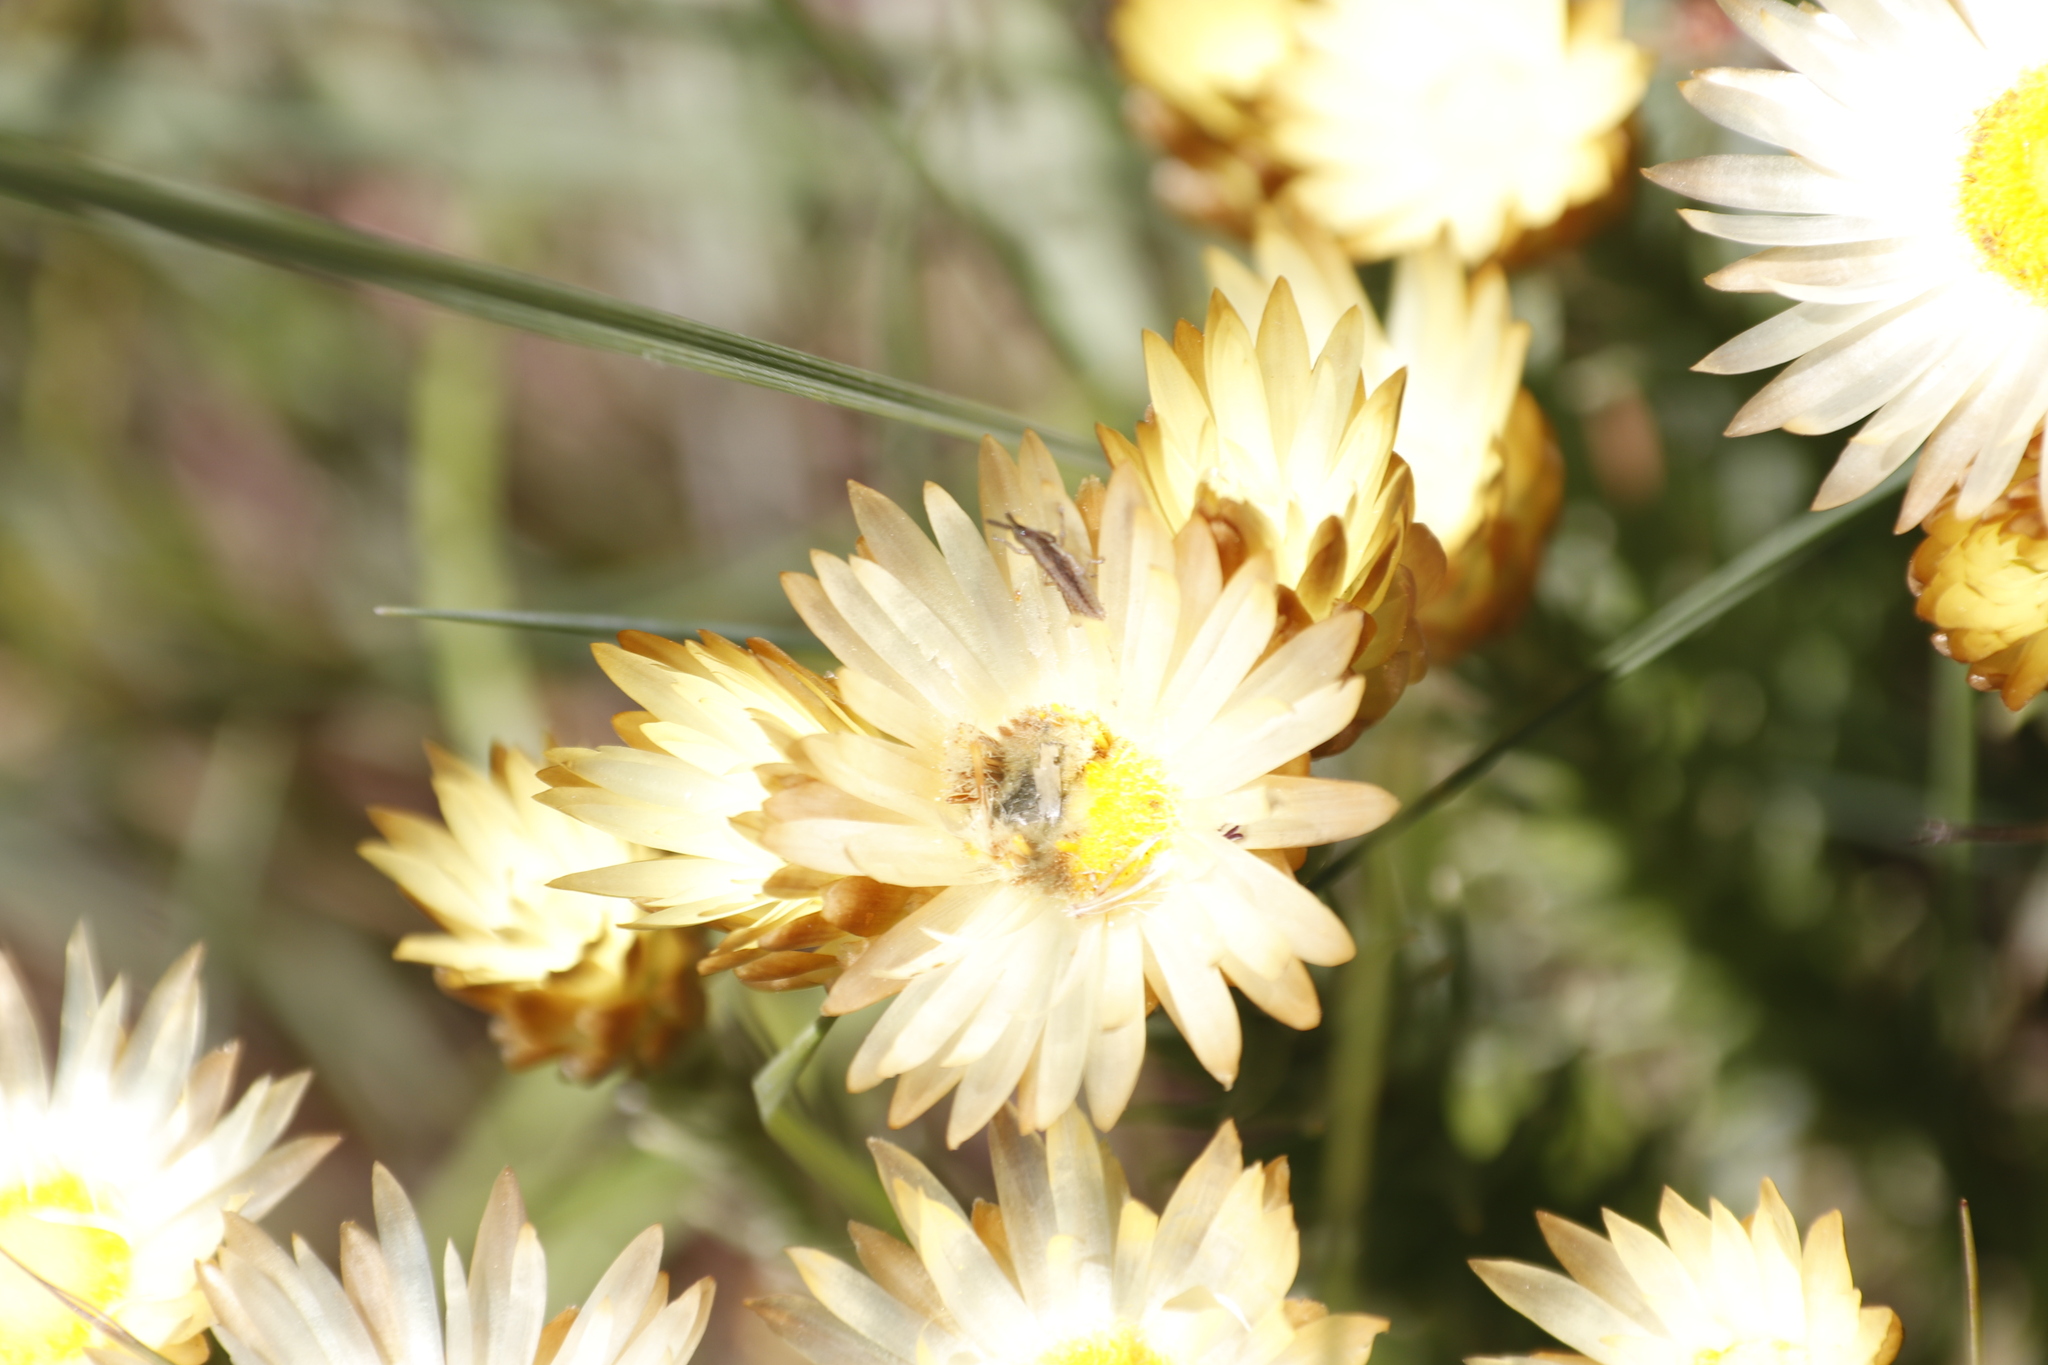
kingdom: Plantae
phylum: Tracheophyta
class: Magnoliopsida
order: Asterales
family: Asteraceae
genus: Helichrysum
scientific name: Helichrysum herbaceum
